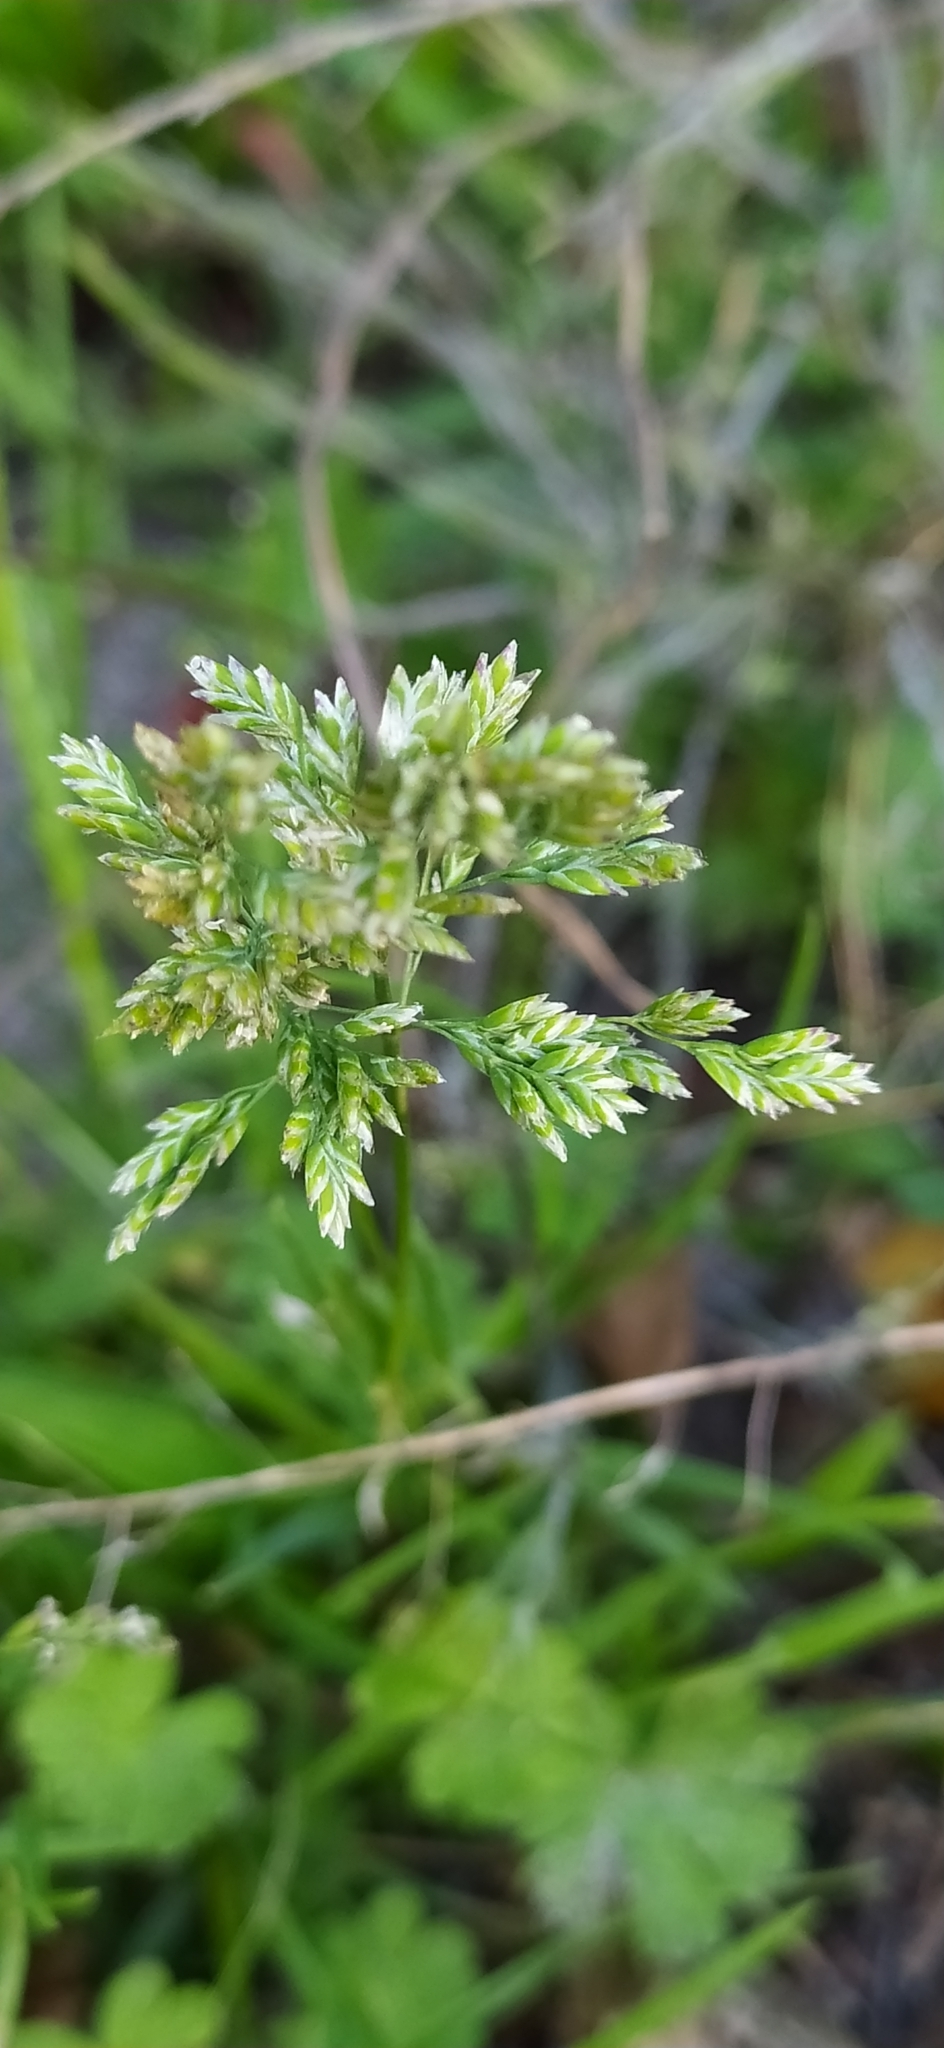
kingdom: Plantae
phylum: Tracheophyta
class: Liliopsida
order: Poales
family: Poaceae
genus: Poa
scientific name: Poa annua
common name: Annual bluegrass
